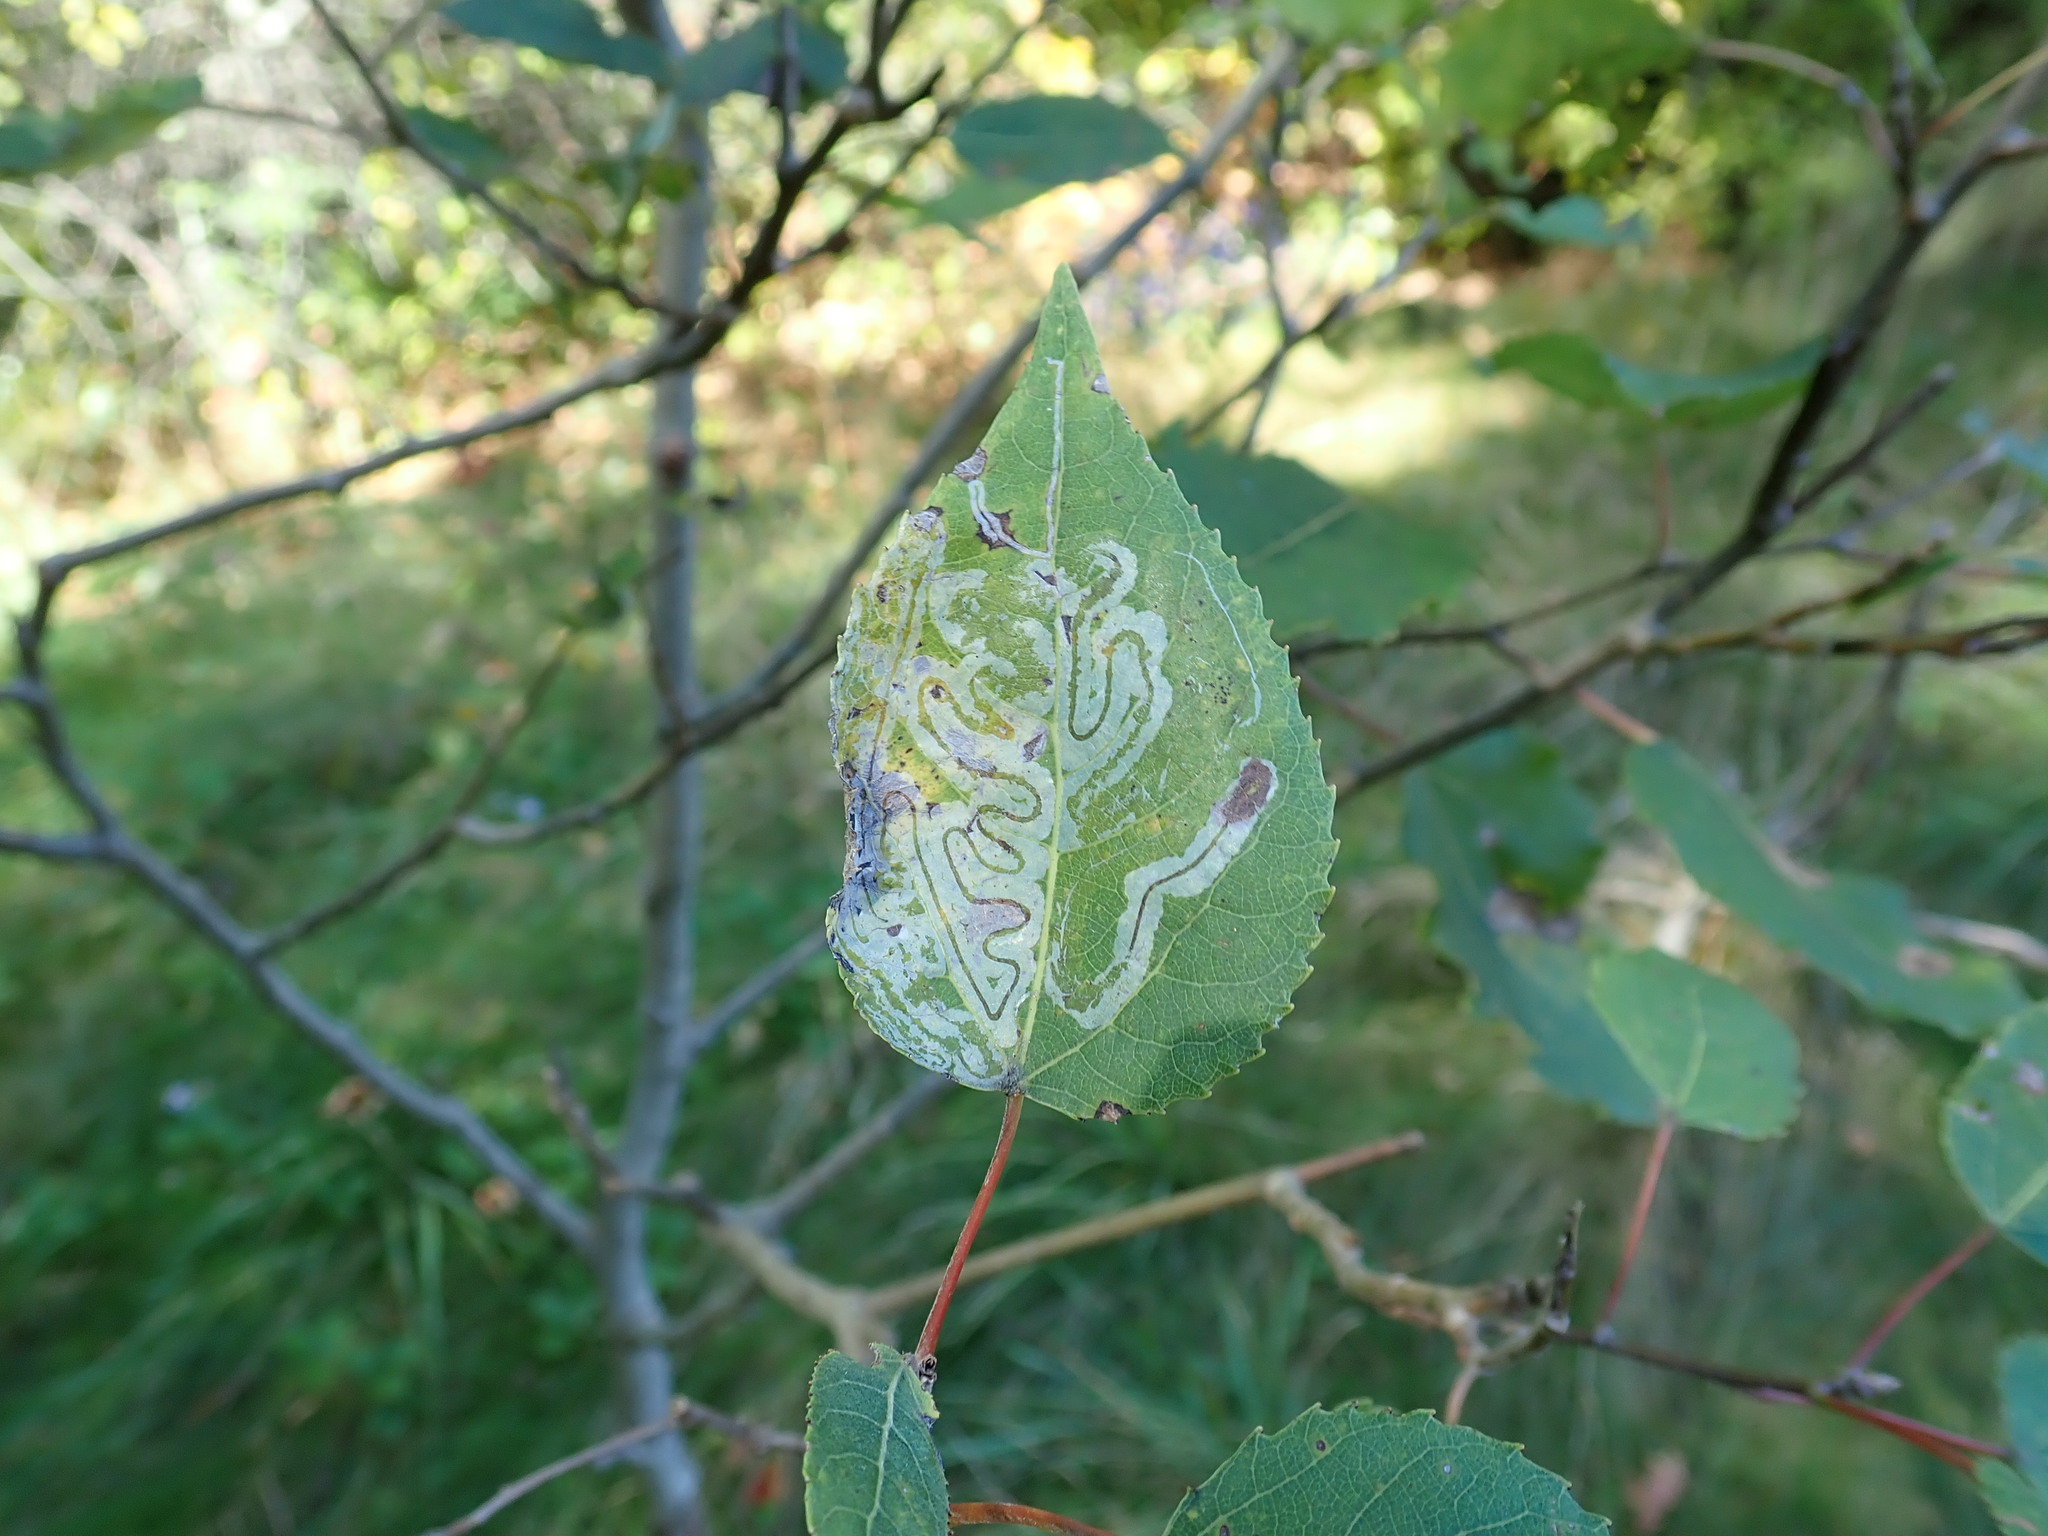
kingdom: Animalia
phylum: Arthropoda
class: Insecta
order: Lepidoptera
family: Gracillariidae
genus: Phyllocnistis
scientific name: Phyllocnistis populiella
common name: Aspen serpentine leafminer moth
